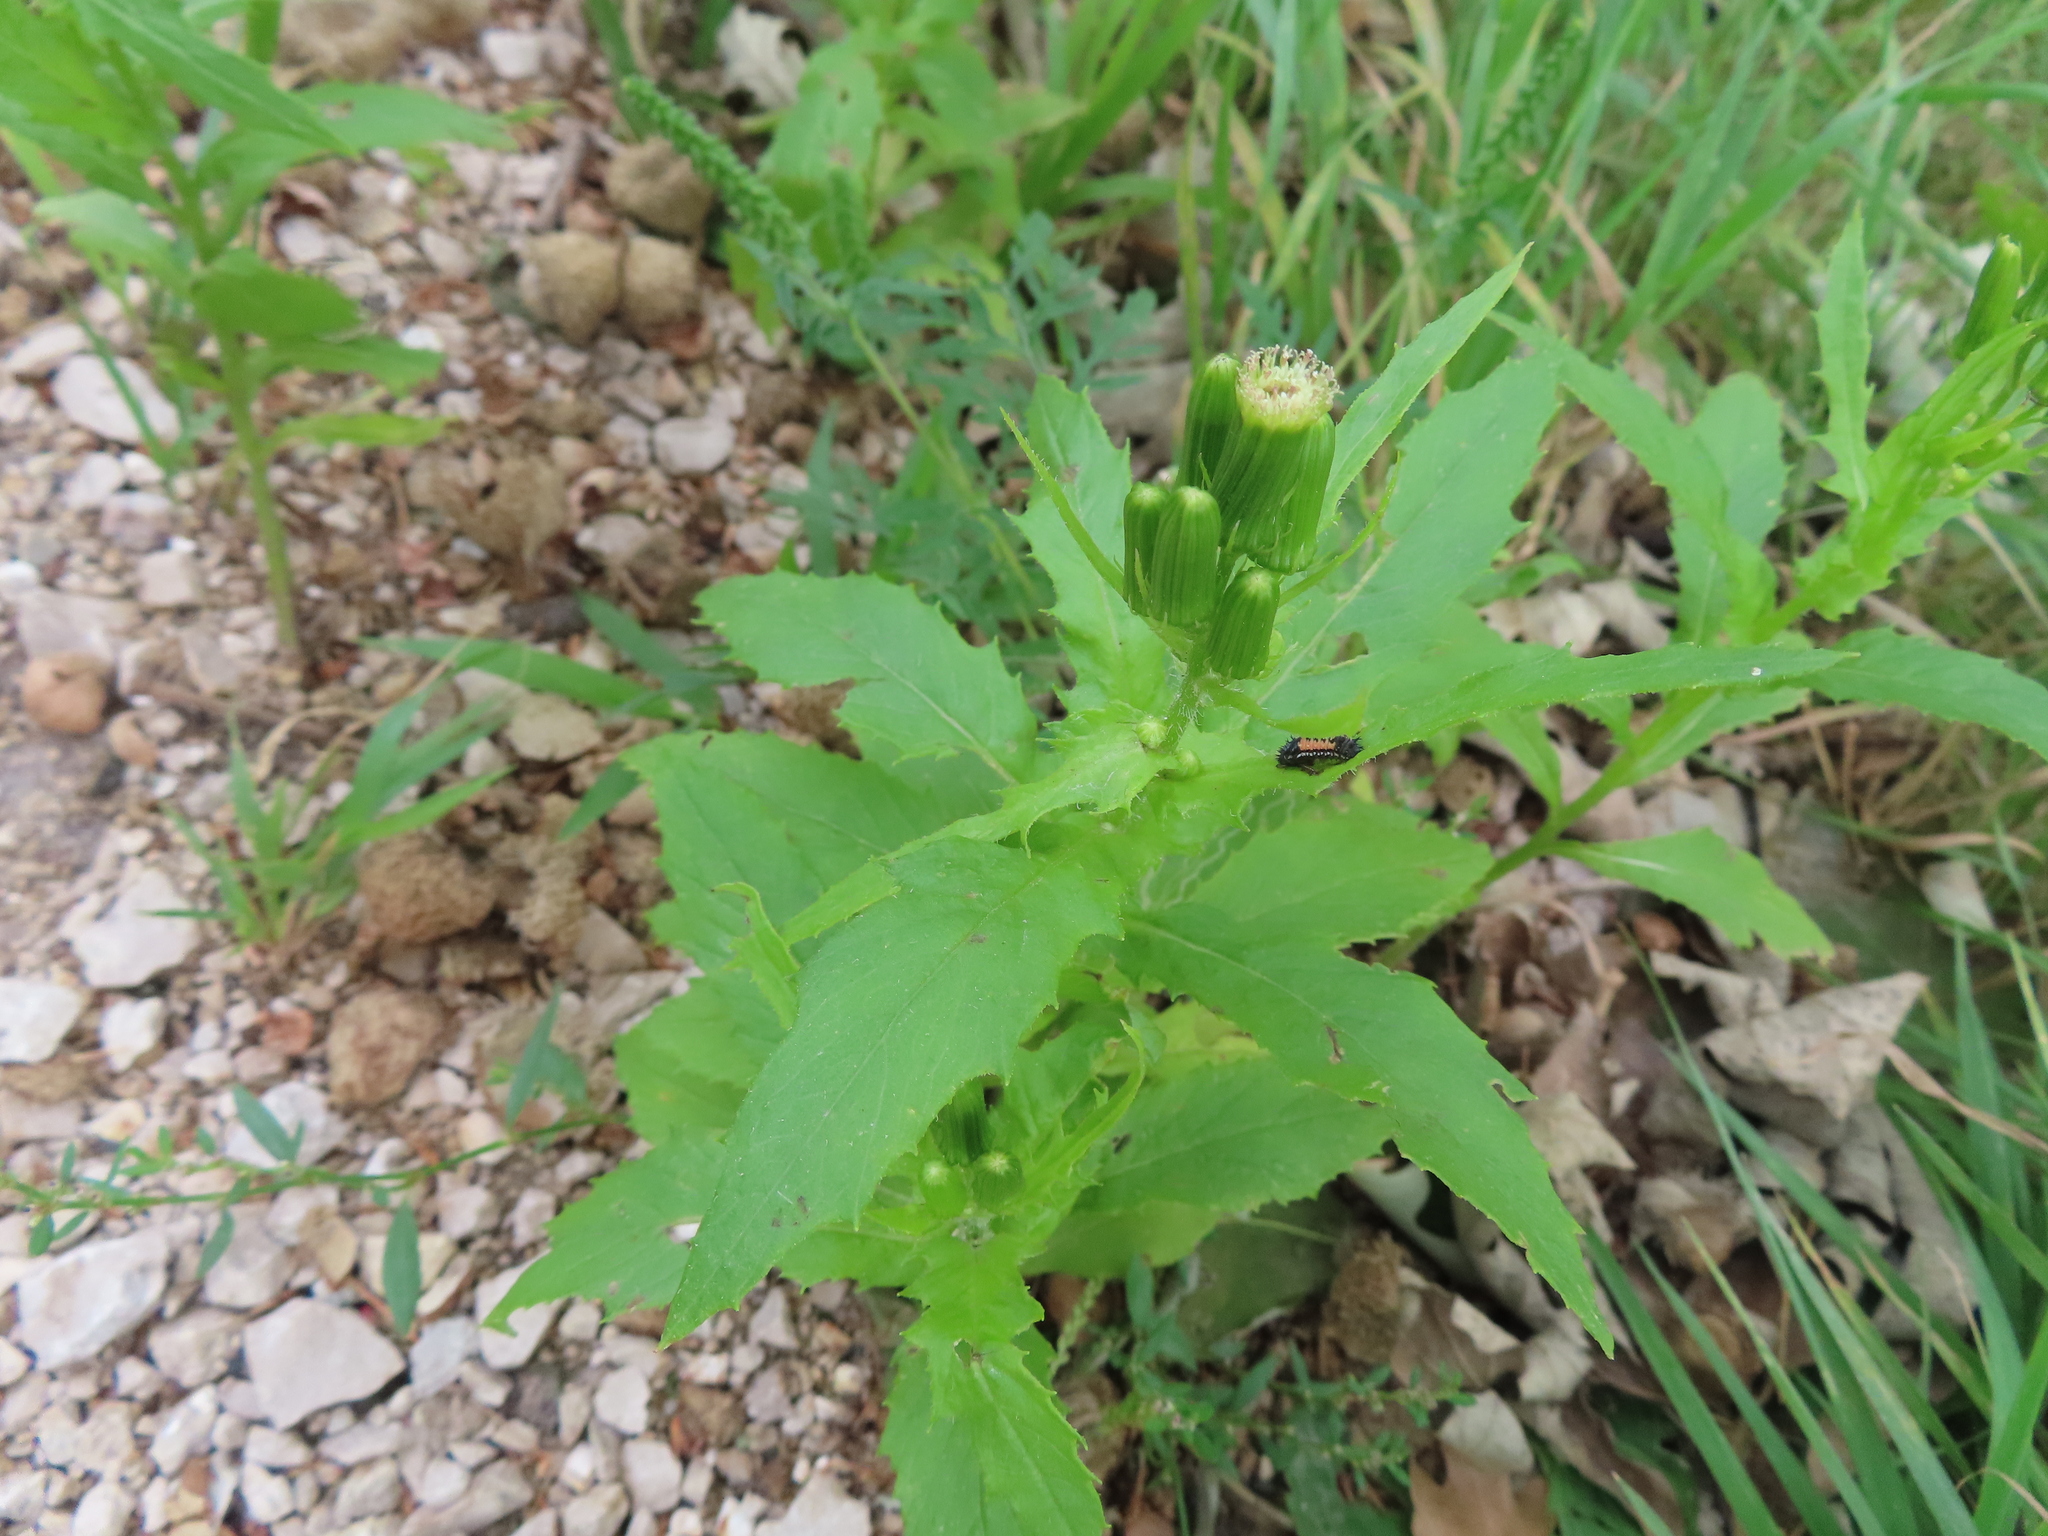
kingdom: Plantae
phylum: Tracheophyta
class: Magnoliopsida
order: Asterales
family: Asteraceae
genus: Erechtites
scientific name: Erechtites hieraciifolius
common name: American burnweed
